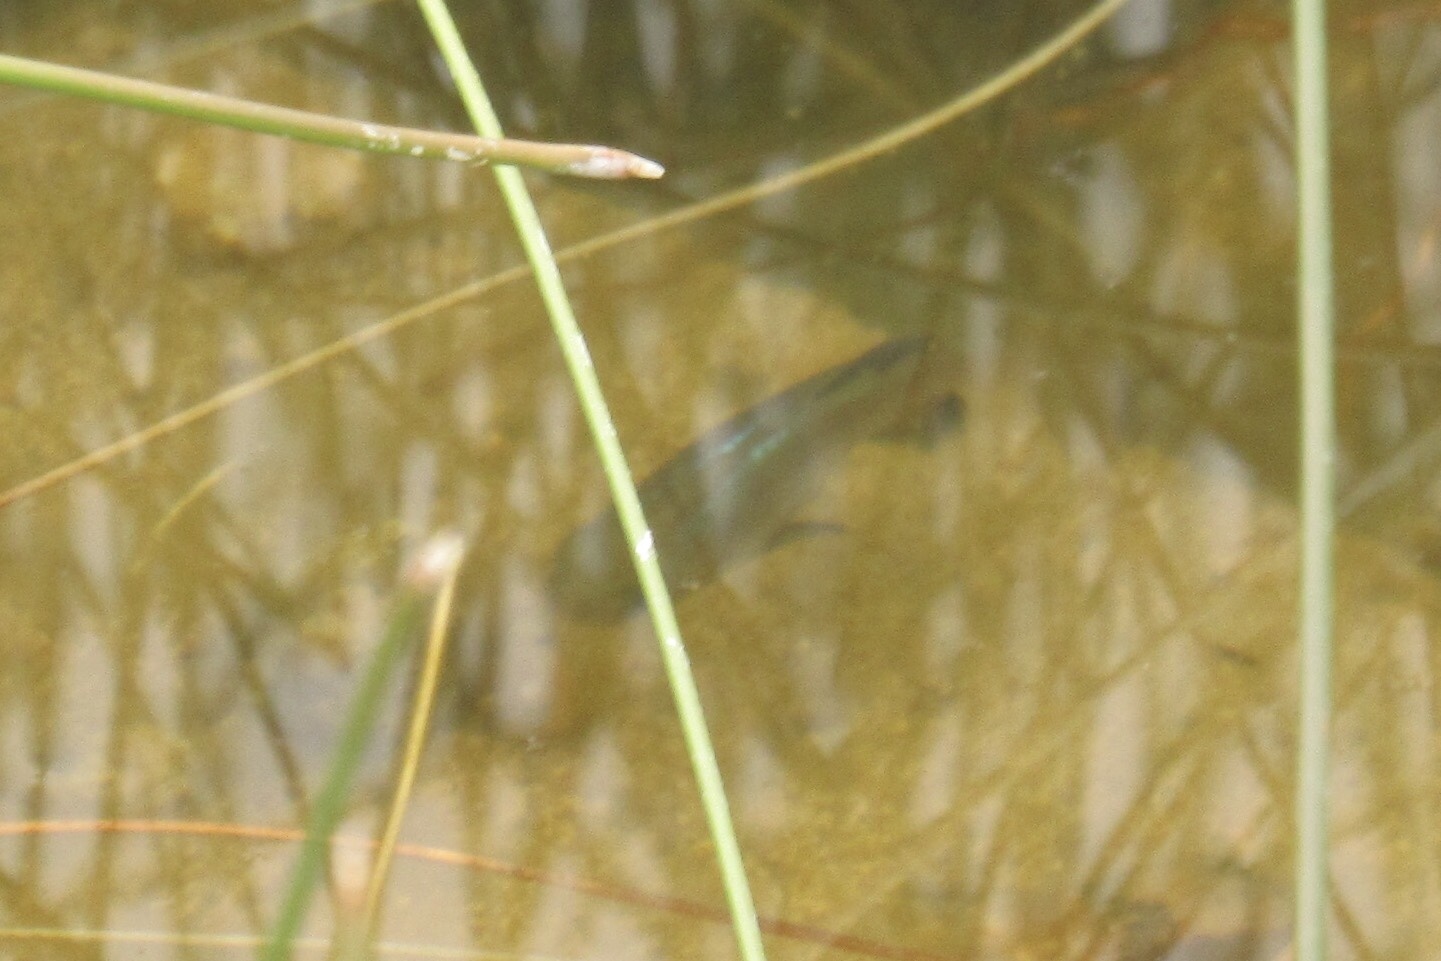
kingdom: Animalia
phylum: Chordata
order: Cyprinodontiformes
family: Cyprinodontidae
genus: Cyprinodon
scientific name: Cyprinodon eremus
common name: Sonoyta pupfish
